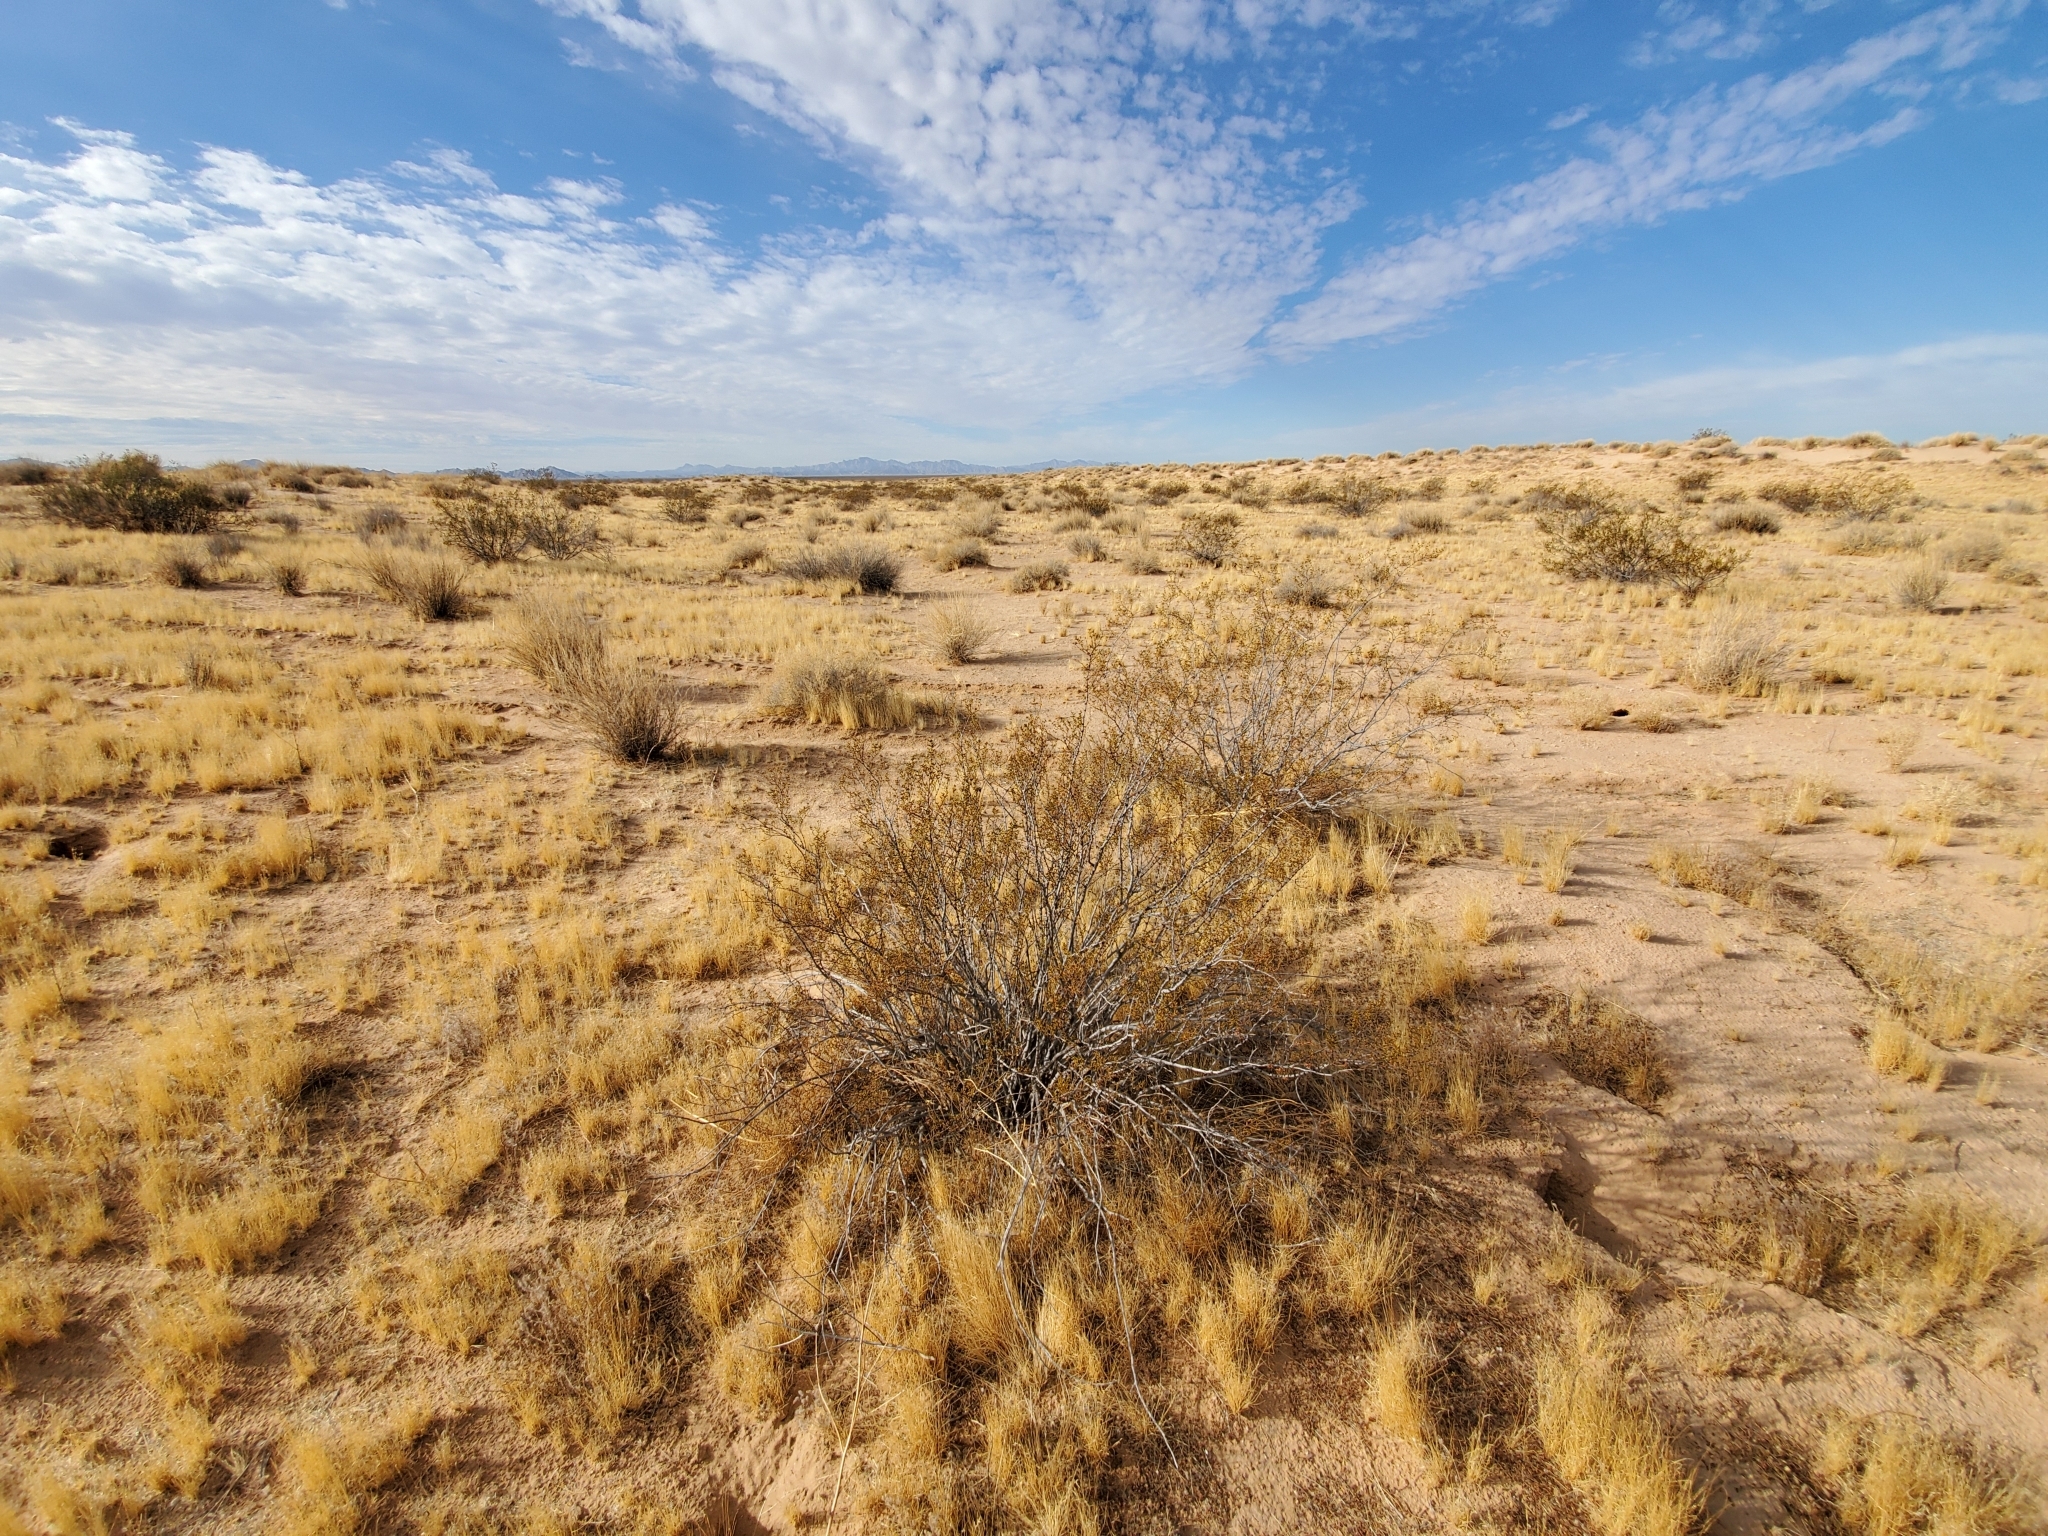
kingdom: Plantae
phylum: Tracheophyta
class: Magnoliopsida
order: Zygophyllales
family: Zygophyllaceae
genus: Larrea
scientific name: Larrea tridentata
